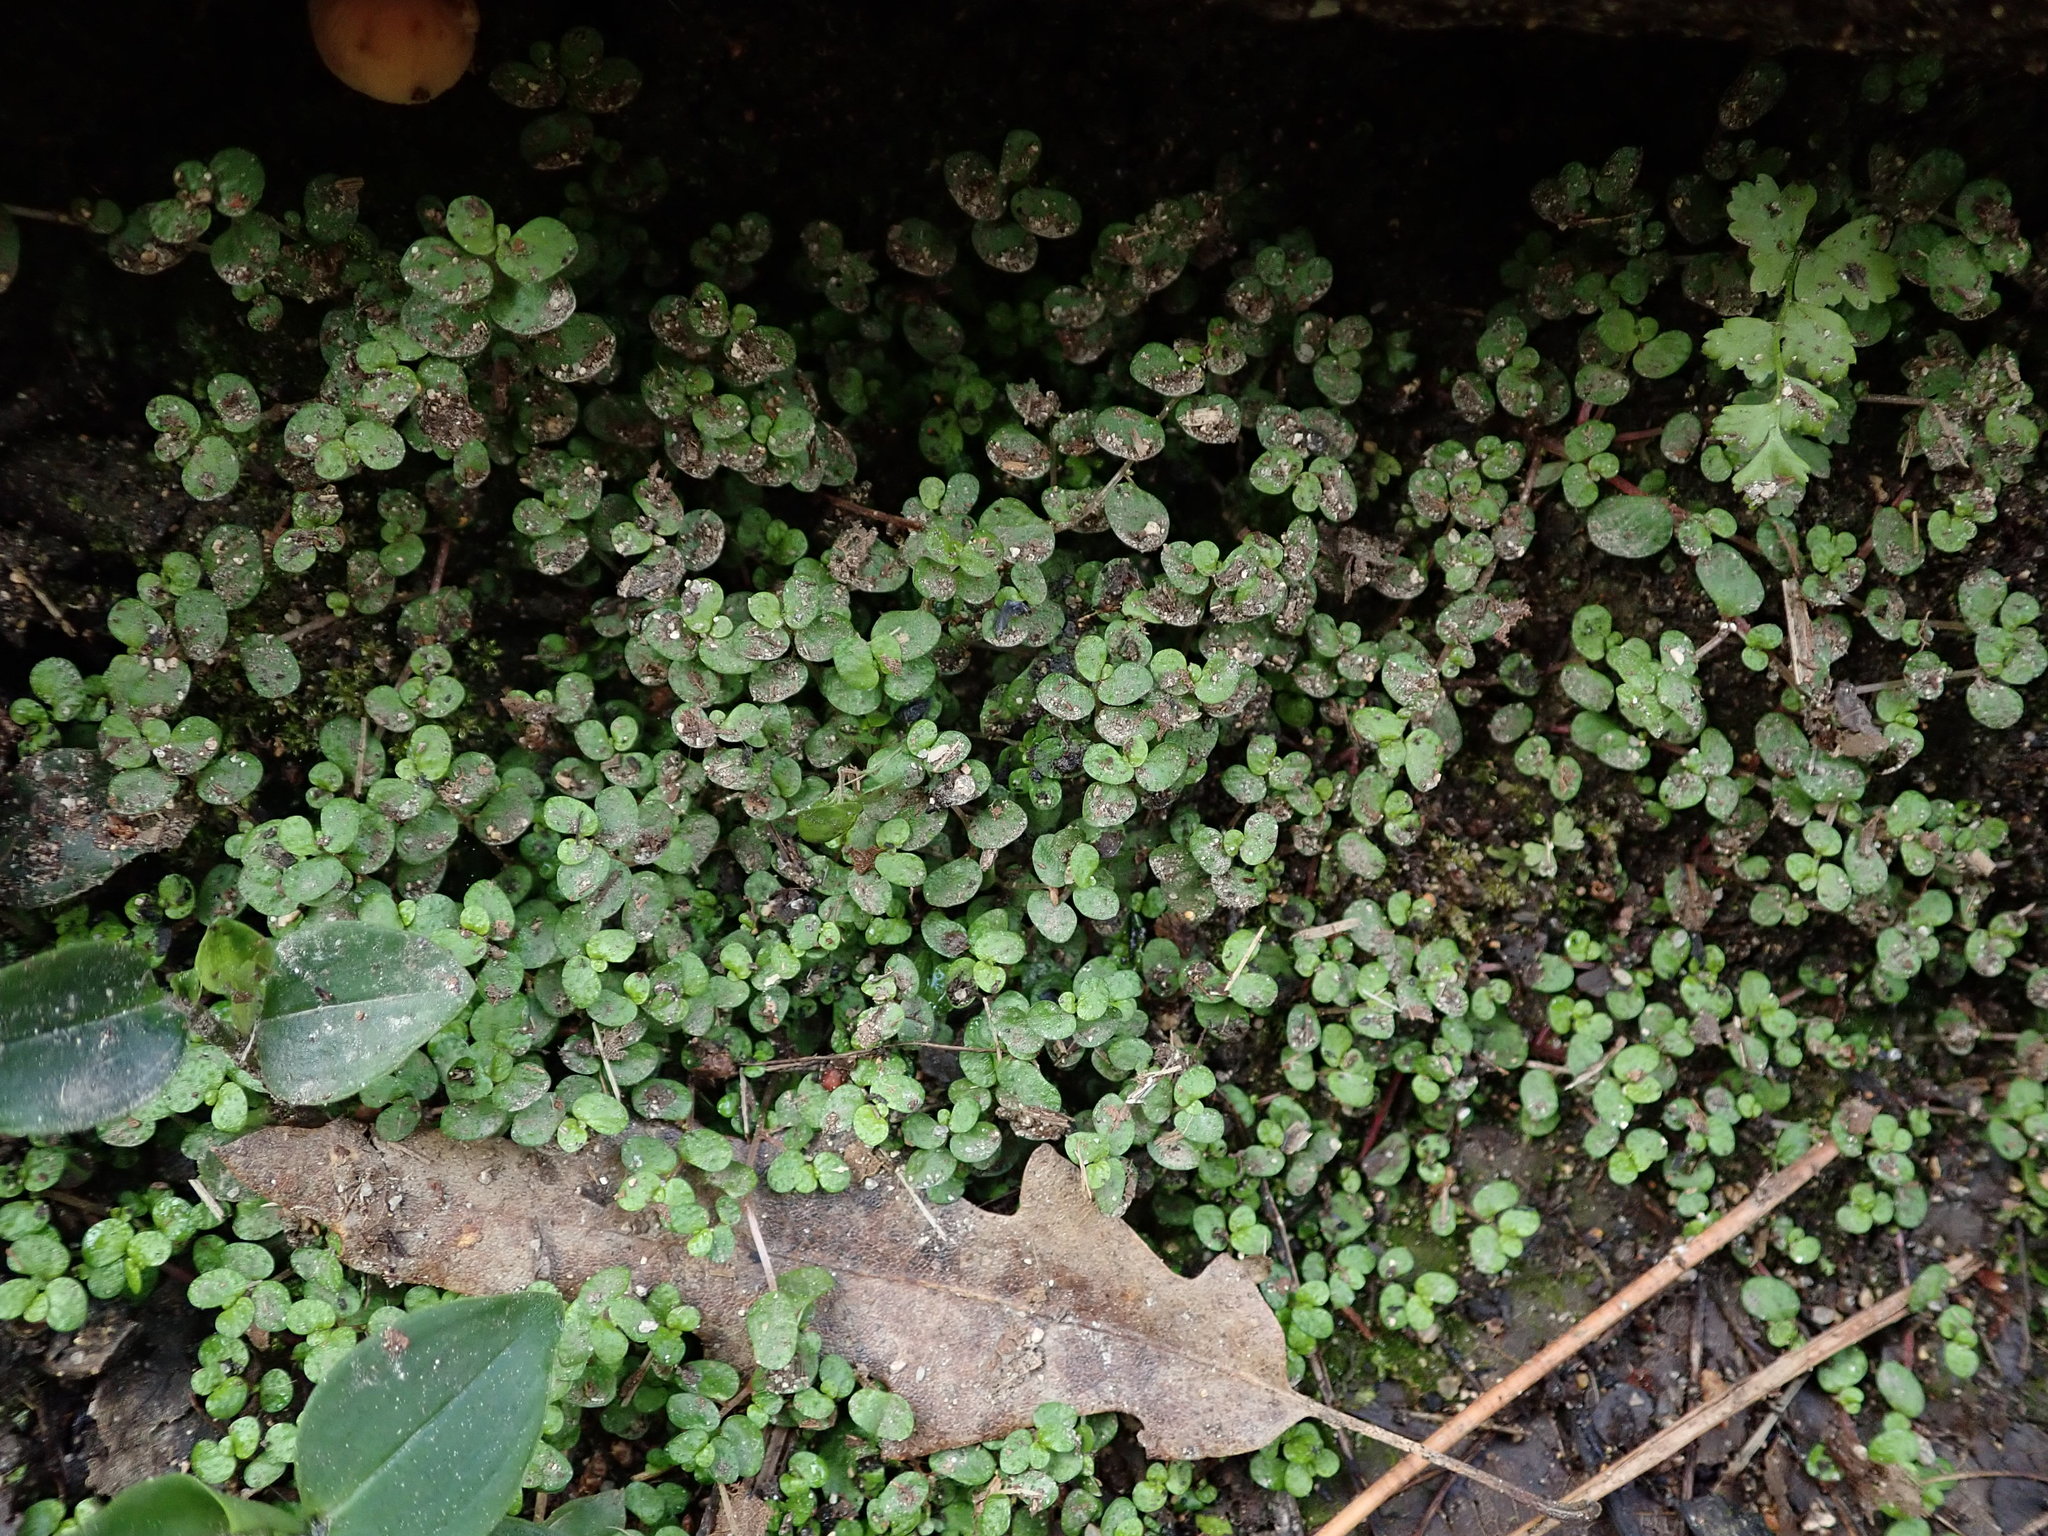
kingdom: Plantae
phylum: Tracheophyta
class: Magnoliopsida
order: Rosales
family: Urticaceae
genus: Soleirolia
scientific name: Soleirolia soleirolii
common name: Mind-your-own-business
